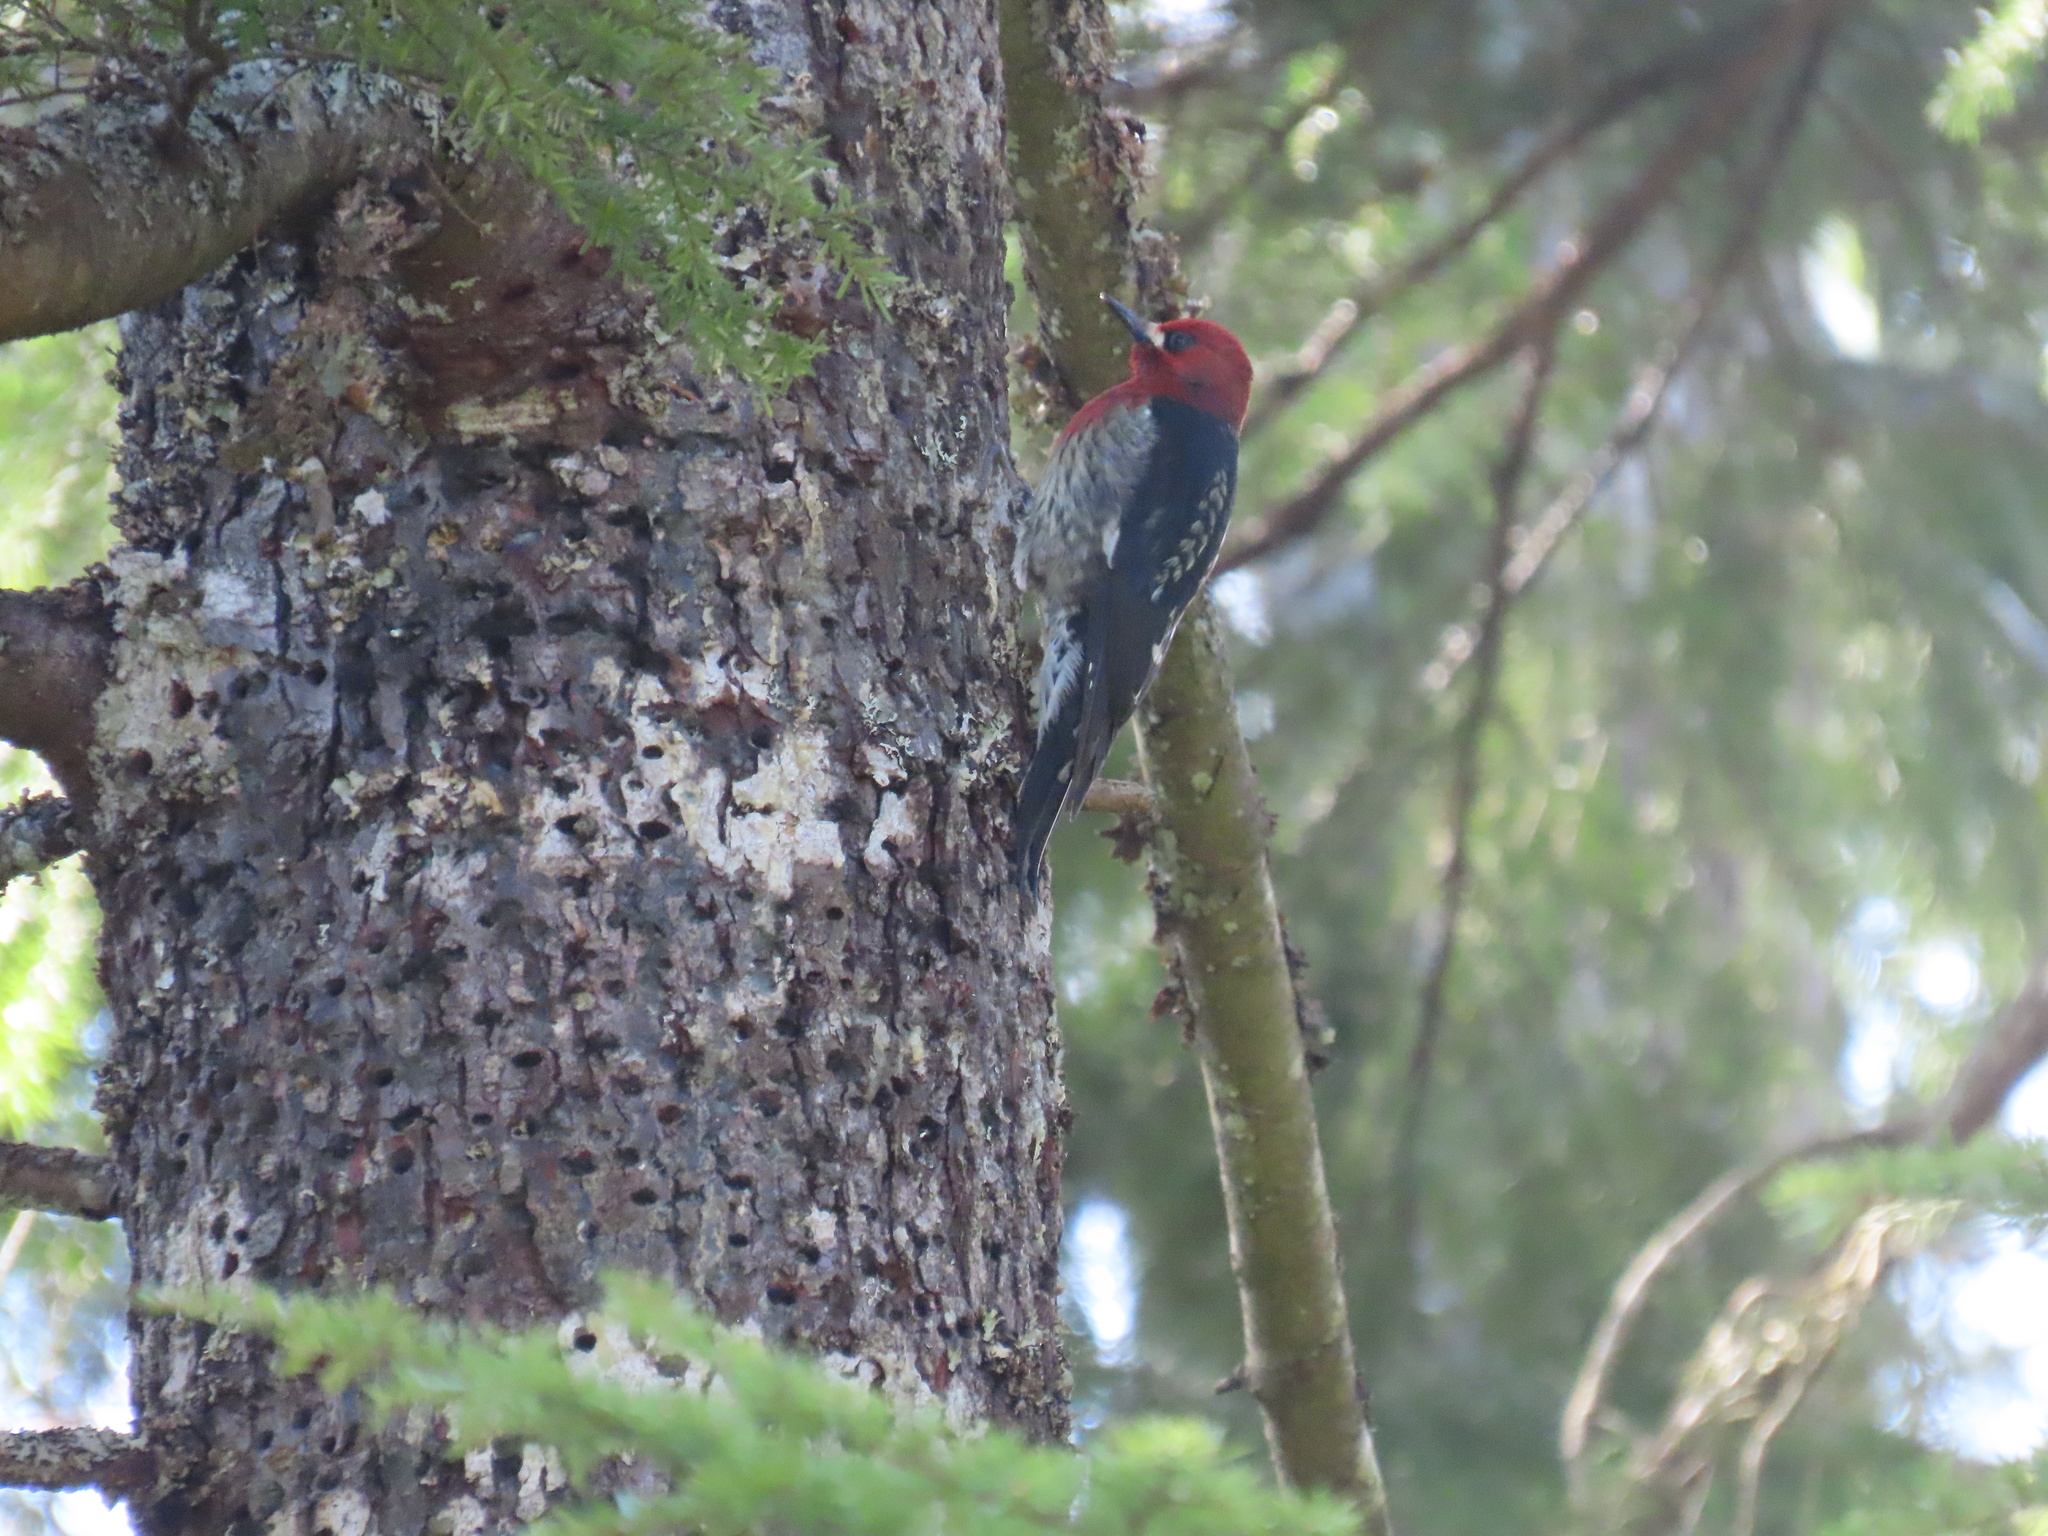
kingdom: Animalia
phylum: Chordata
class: Aves
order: Piciformes
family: Picidae
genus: Sphyrapicus
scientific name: Sphyrapicus ruber
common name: Red-breasted sapsucker
